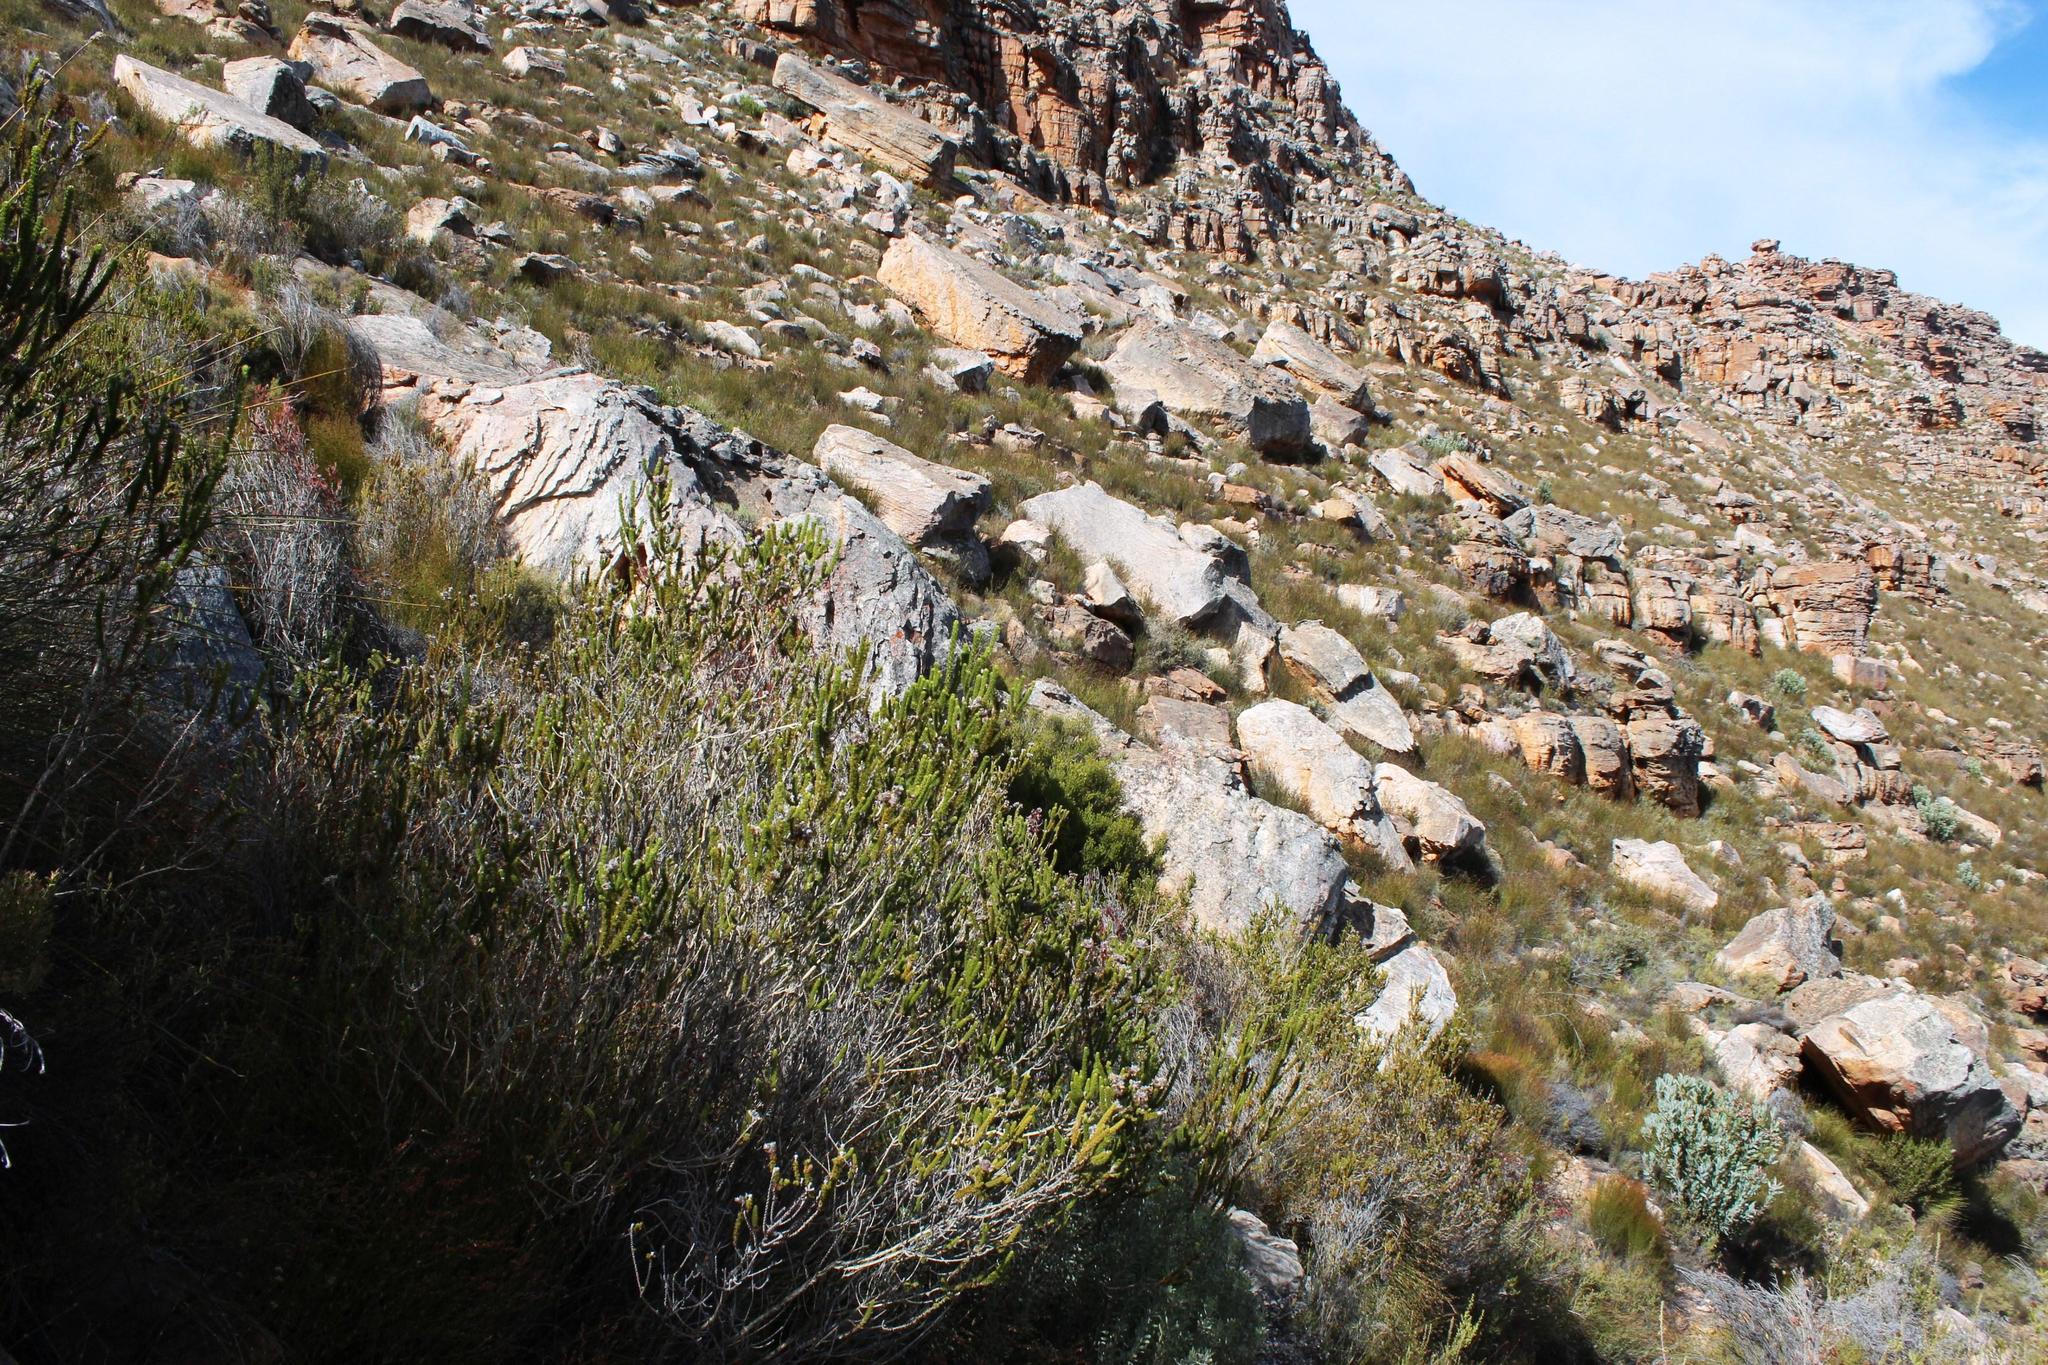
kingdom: Plantae
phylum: Tracheophyta
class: Magnoliopsida
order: Fabales
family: Fabaceae
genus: Aspalathus
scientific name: Aspalathus triquetra
